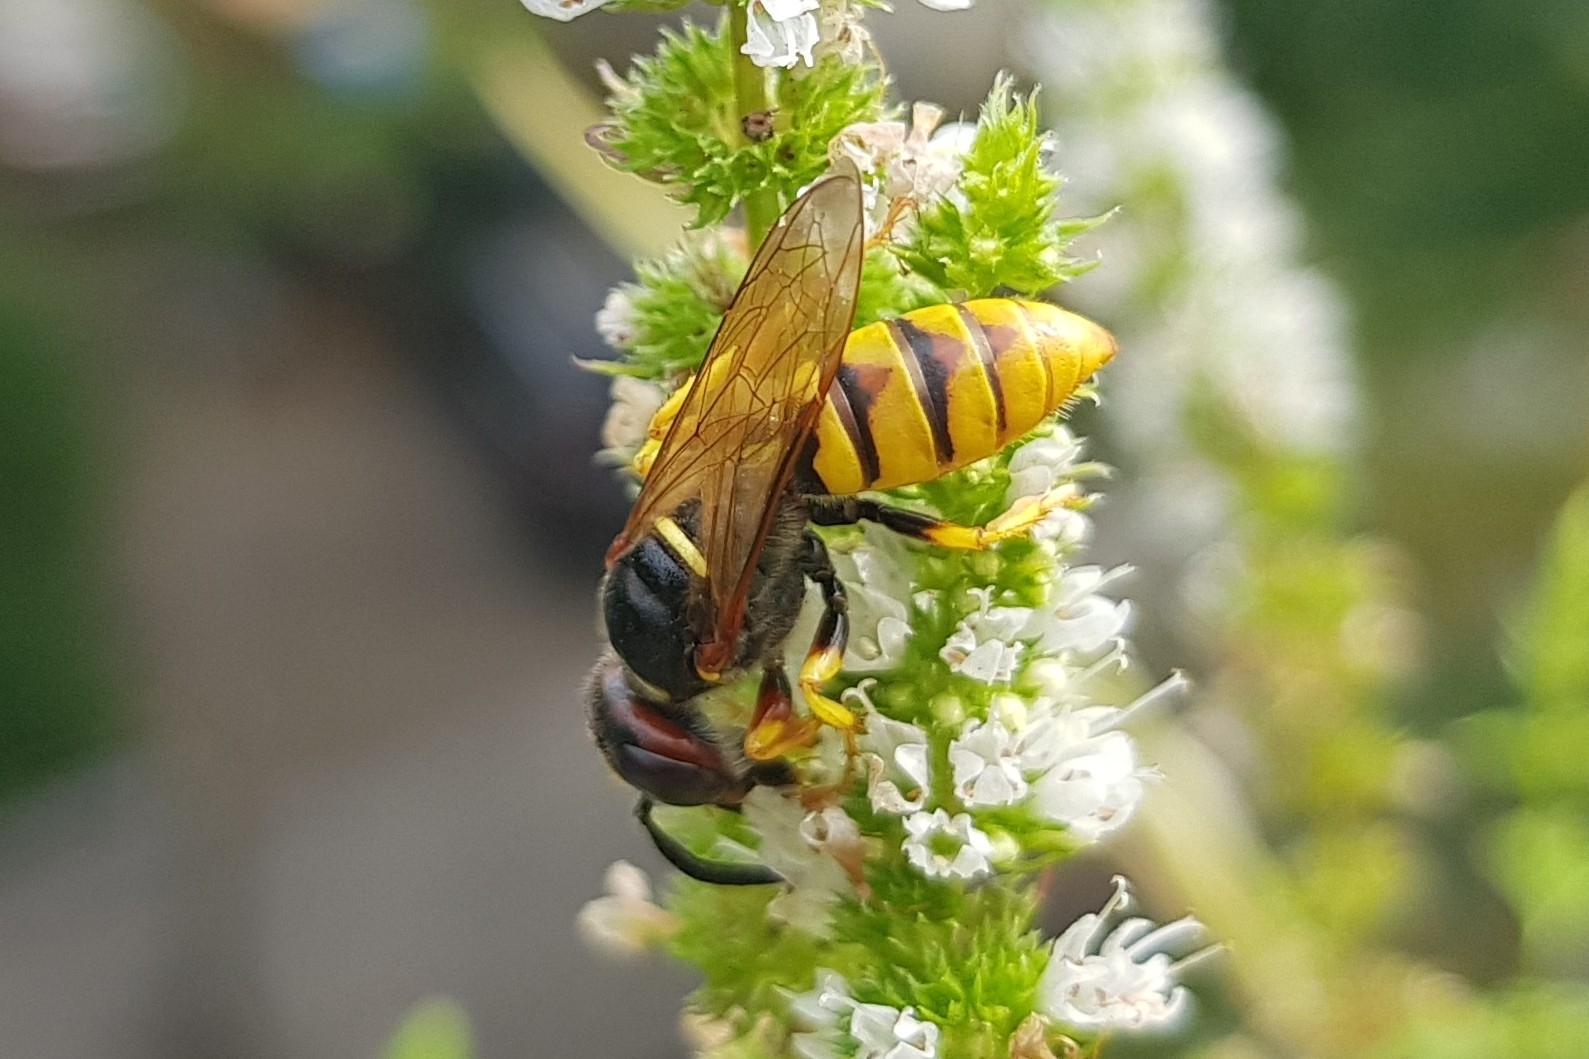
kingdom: Animalia
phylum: Arthropoda
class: Insecta
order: Hymenoptera
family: Crabronidae
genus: Philanthus
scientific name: Philanthus triangulum
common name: Bee wolf
